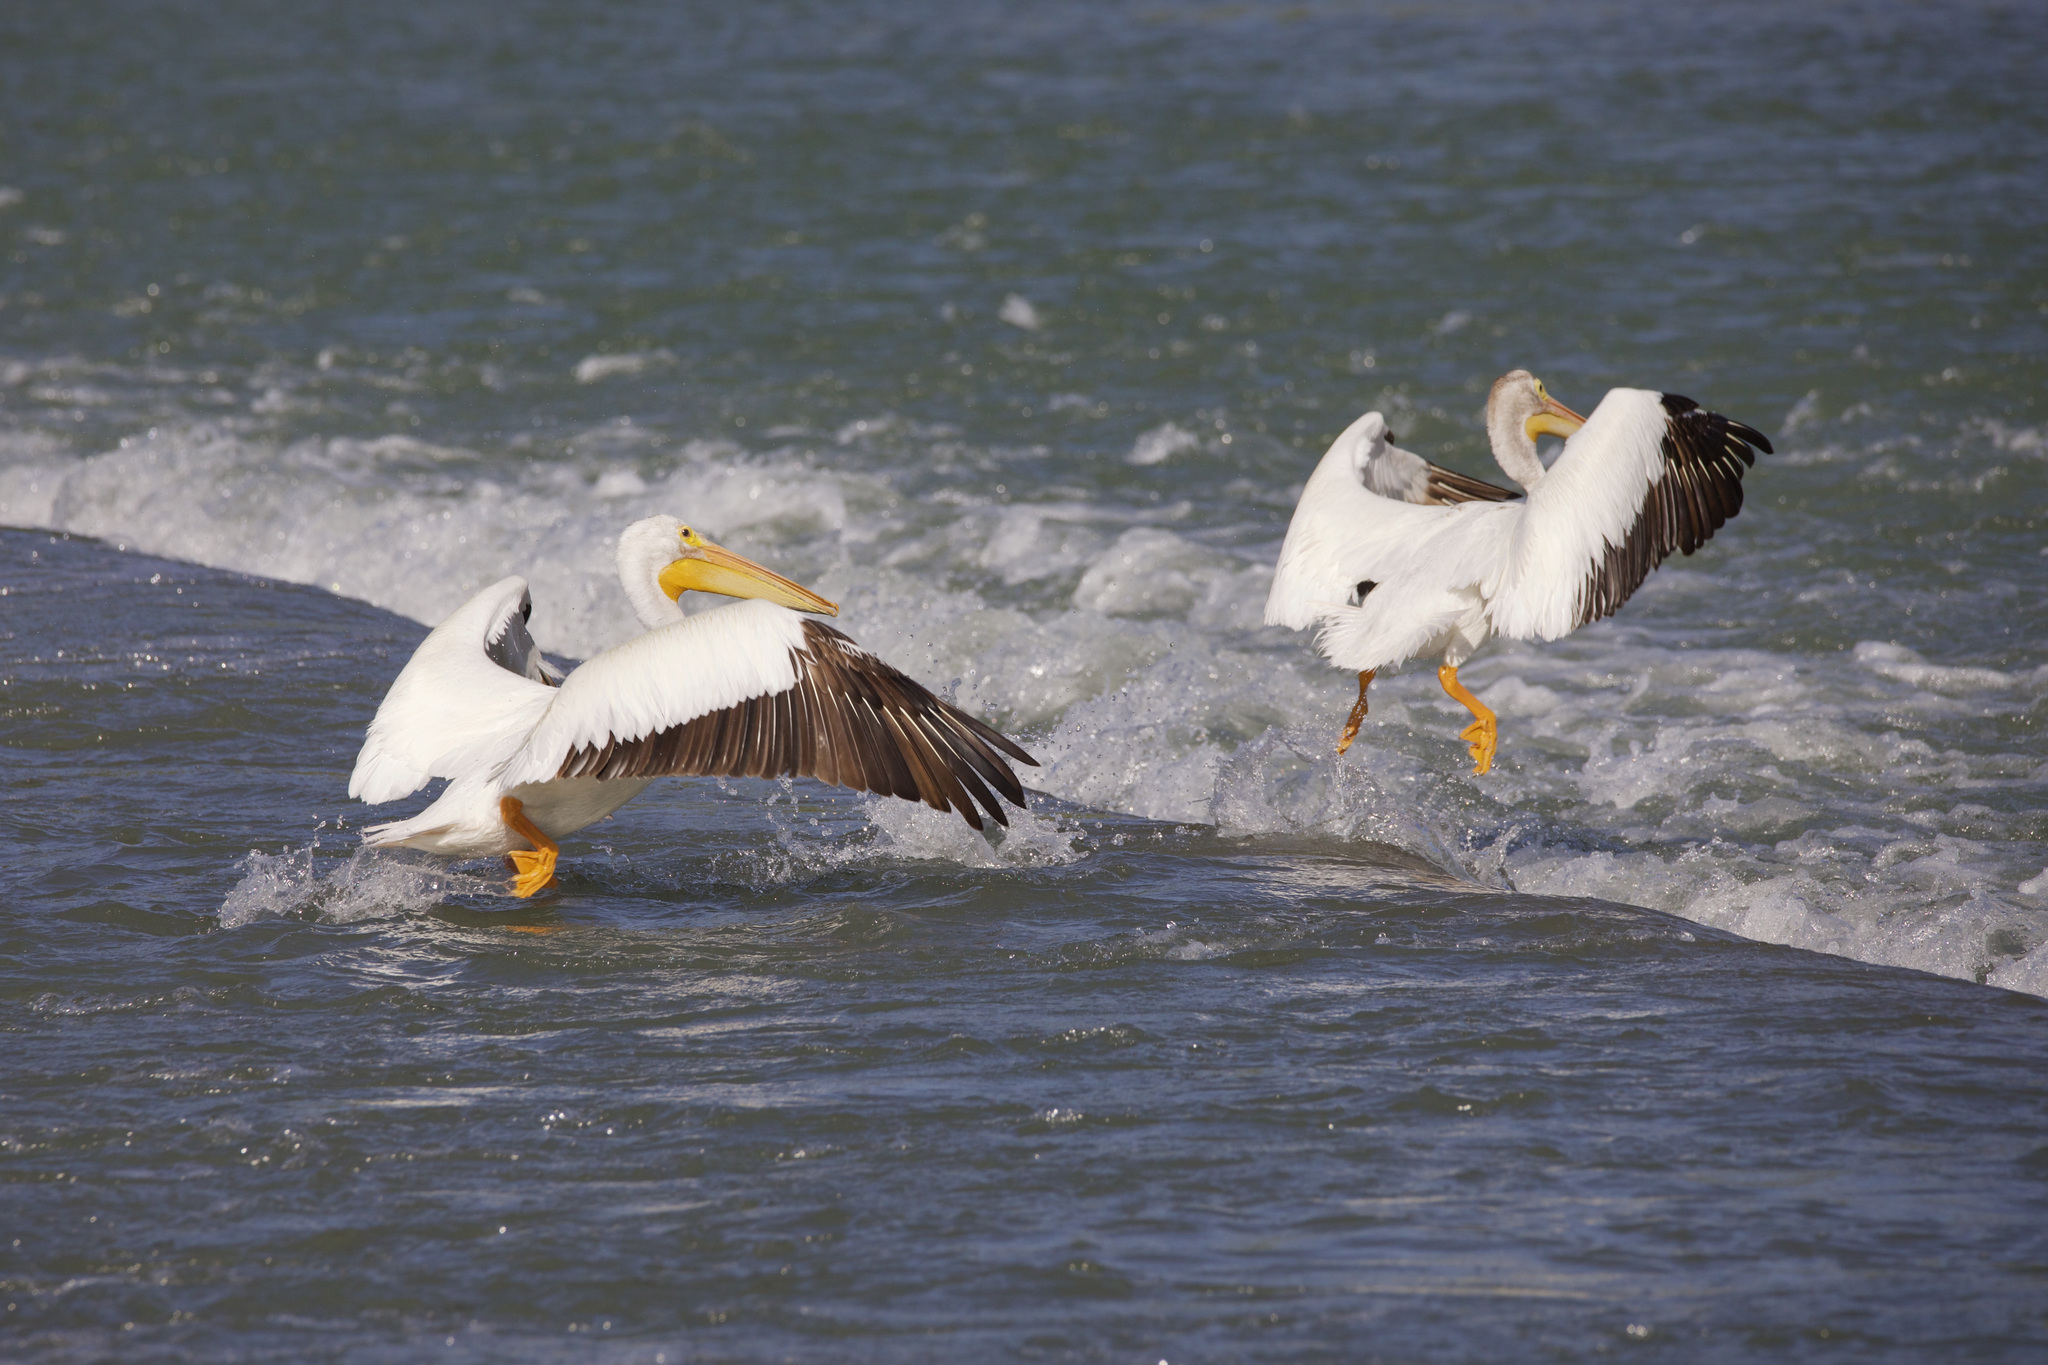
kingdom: Animalia
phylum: Chordata
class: Aves
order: Pelecaniformes
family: Pelecanidae
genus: Pelecanus
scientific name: Pelecanus erythrorhynchos
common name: American white pelican
